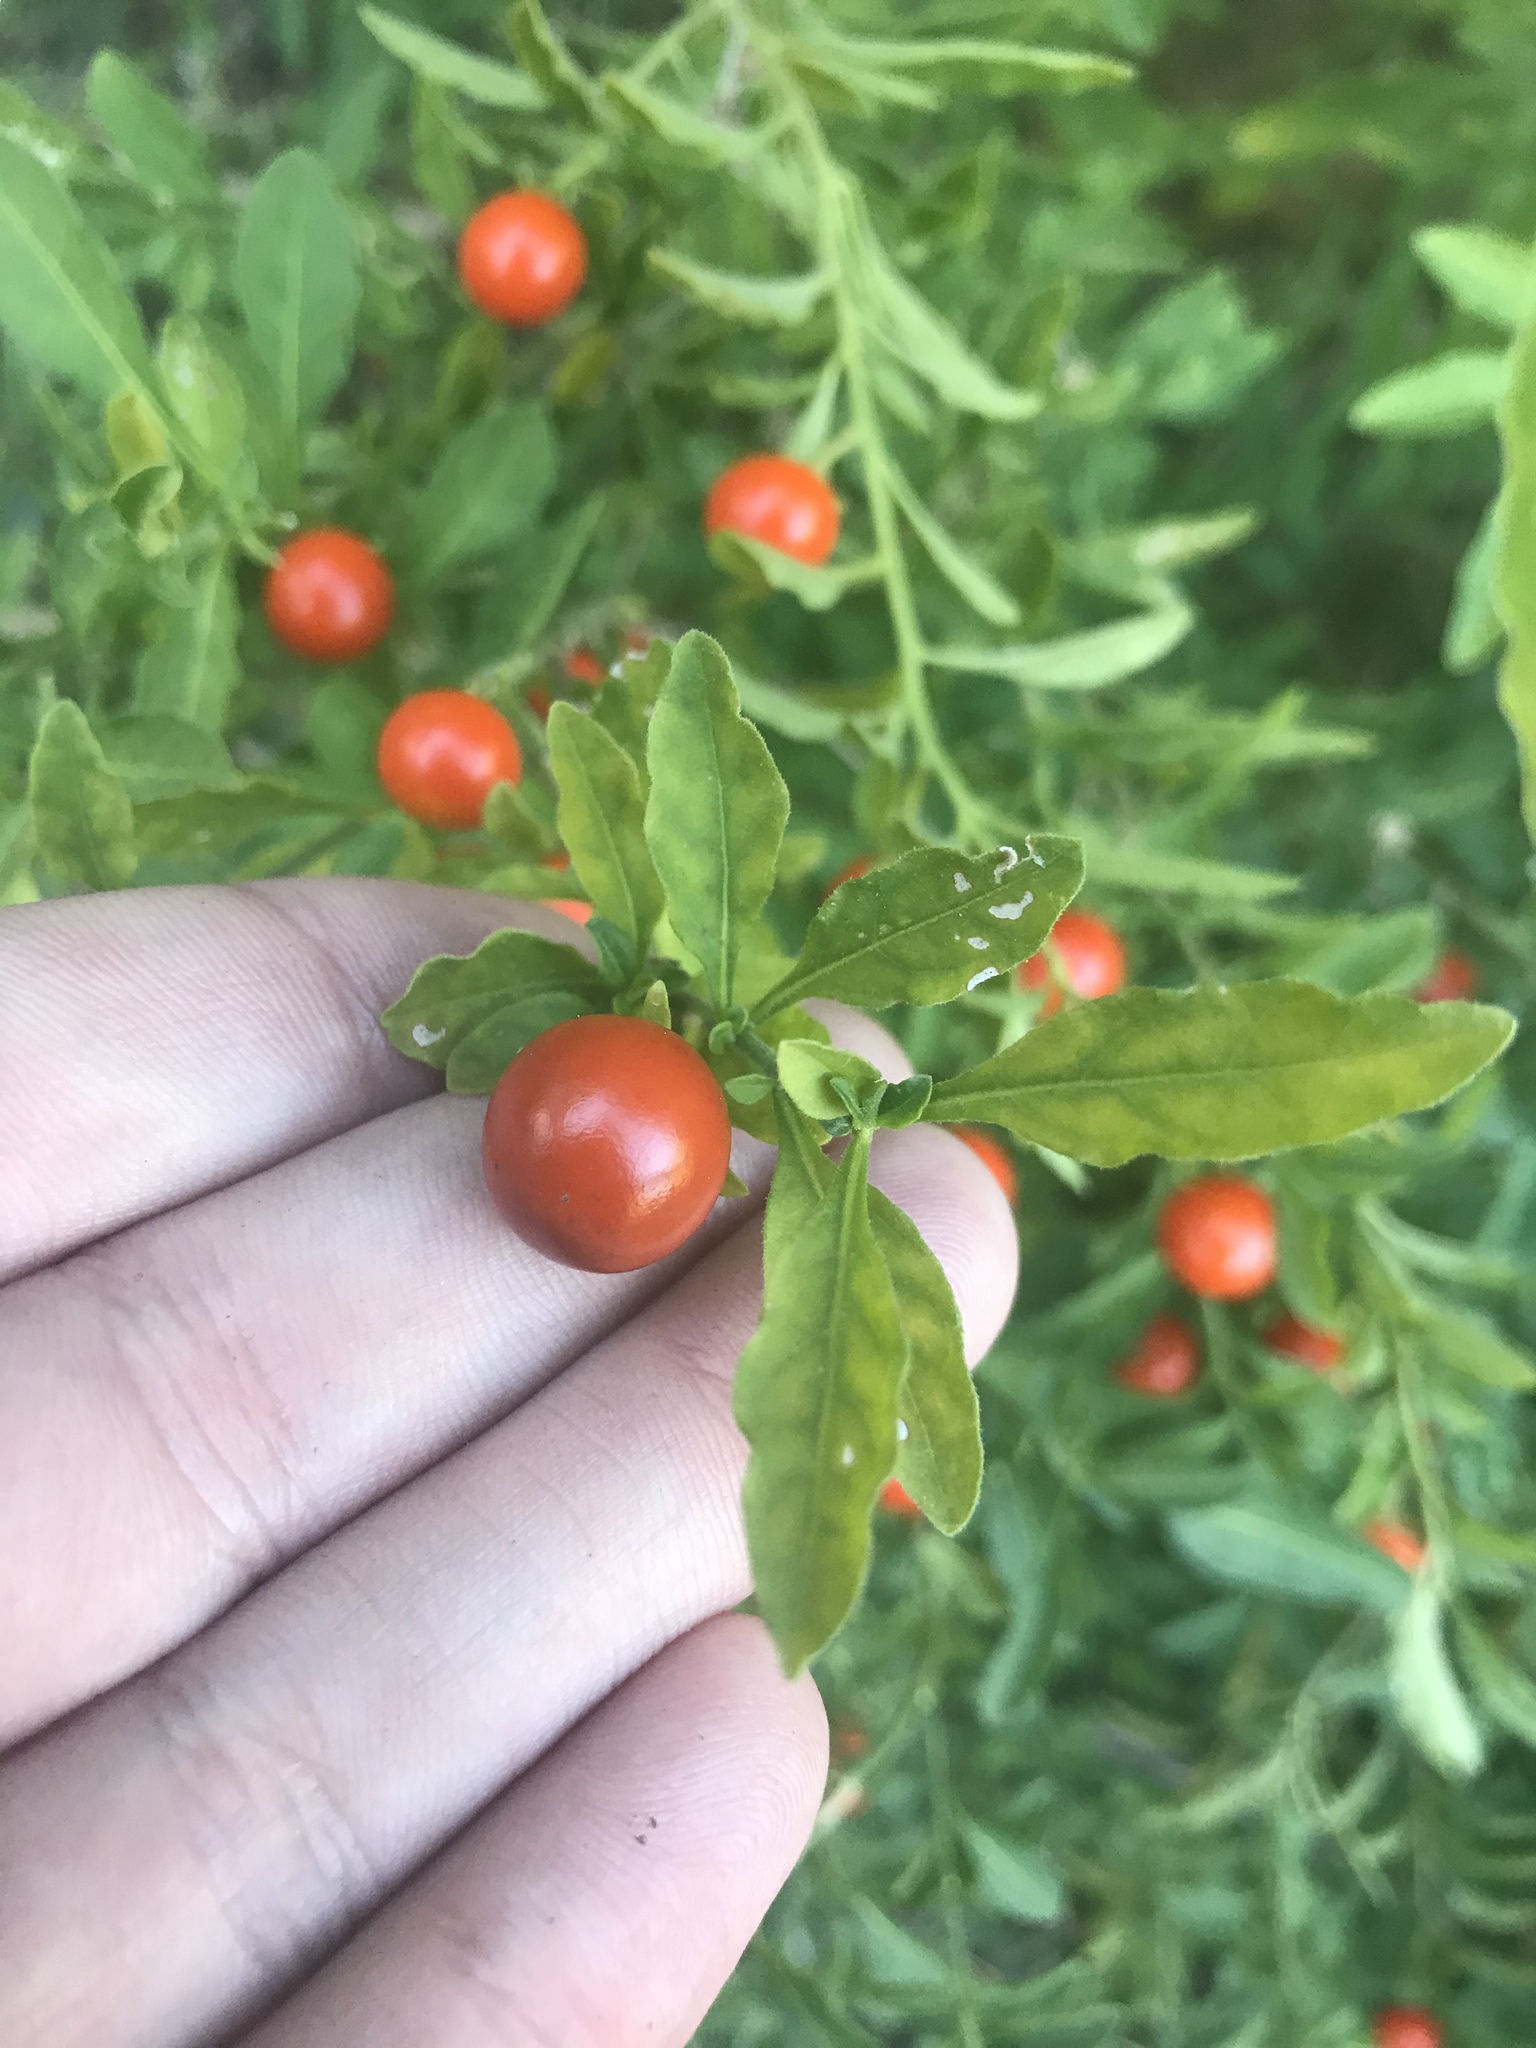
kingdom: Plantae
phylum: Tracheophyta
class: Magnoliopsida
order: Solanales
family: Solanaceae
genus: Solanum
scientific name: Solanum pseudocapsicum
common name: Jerusalem cherry
